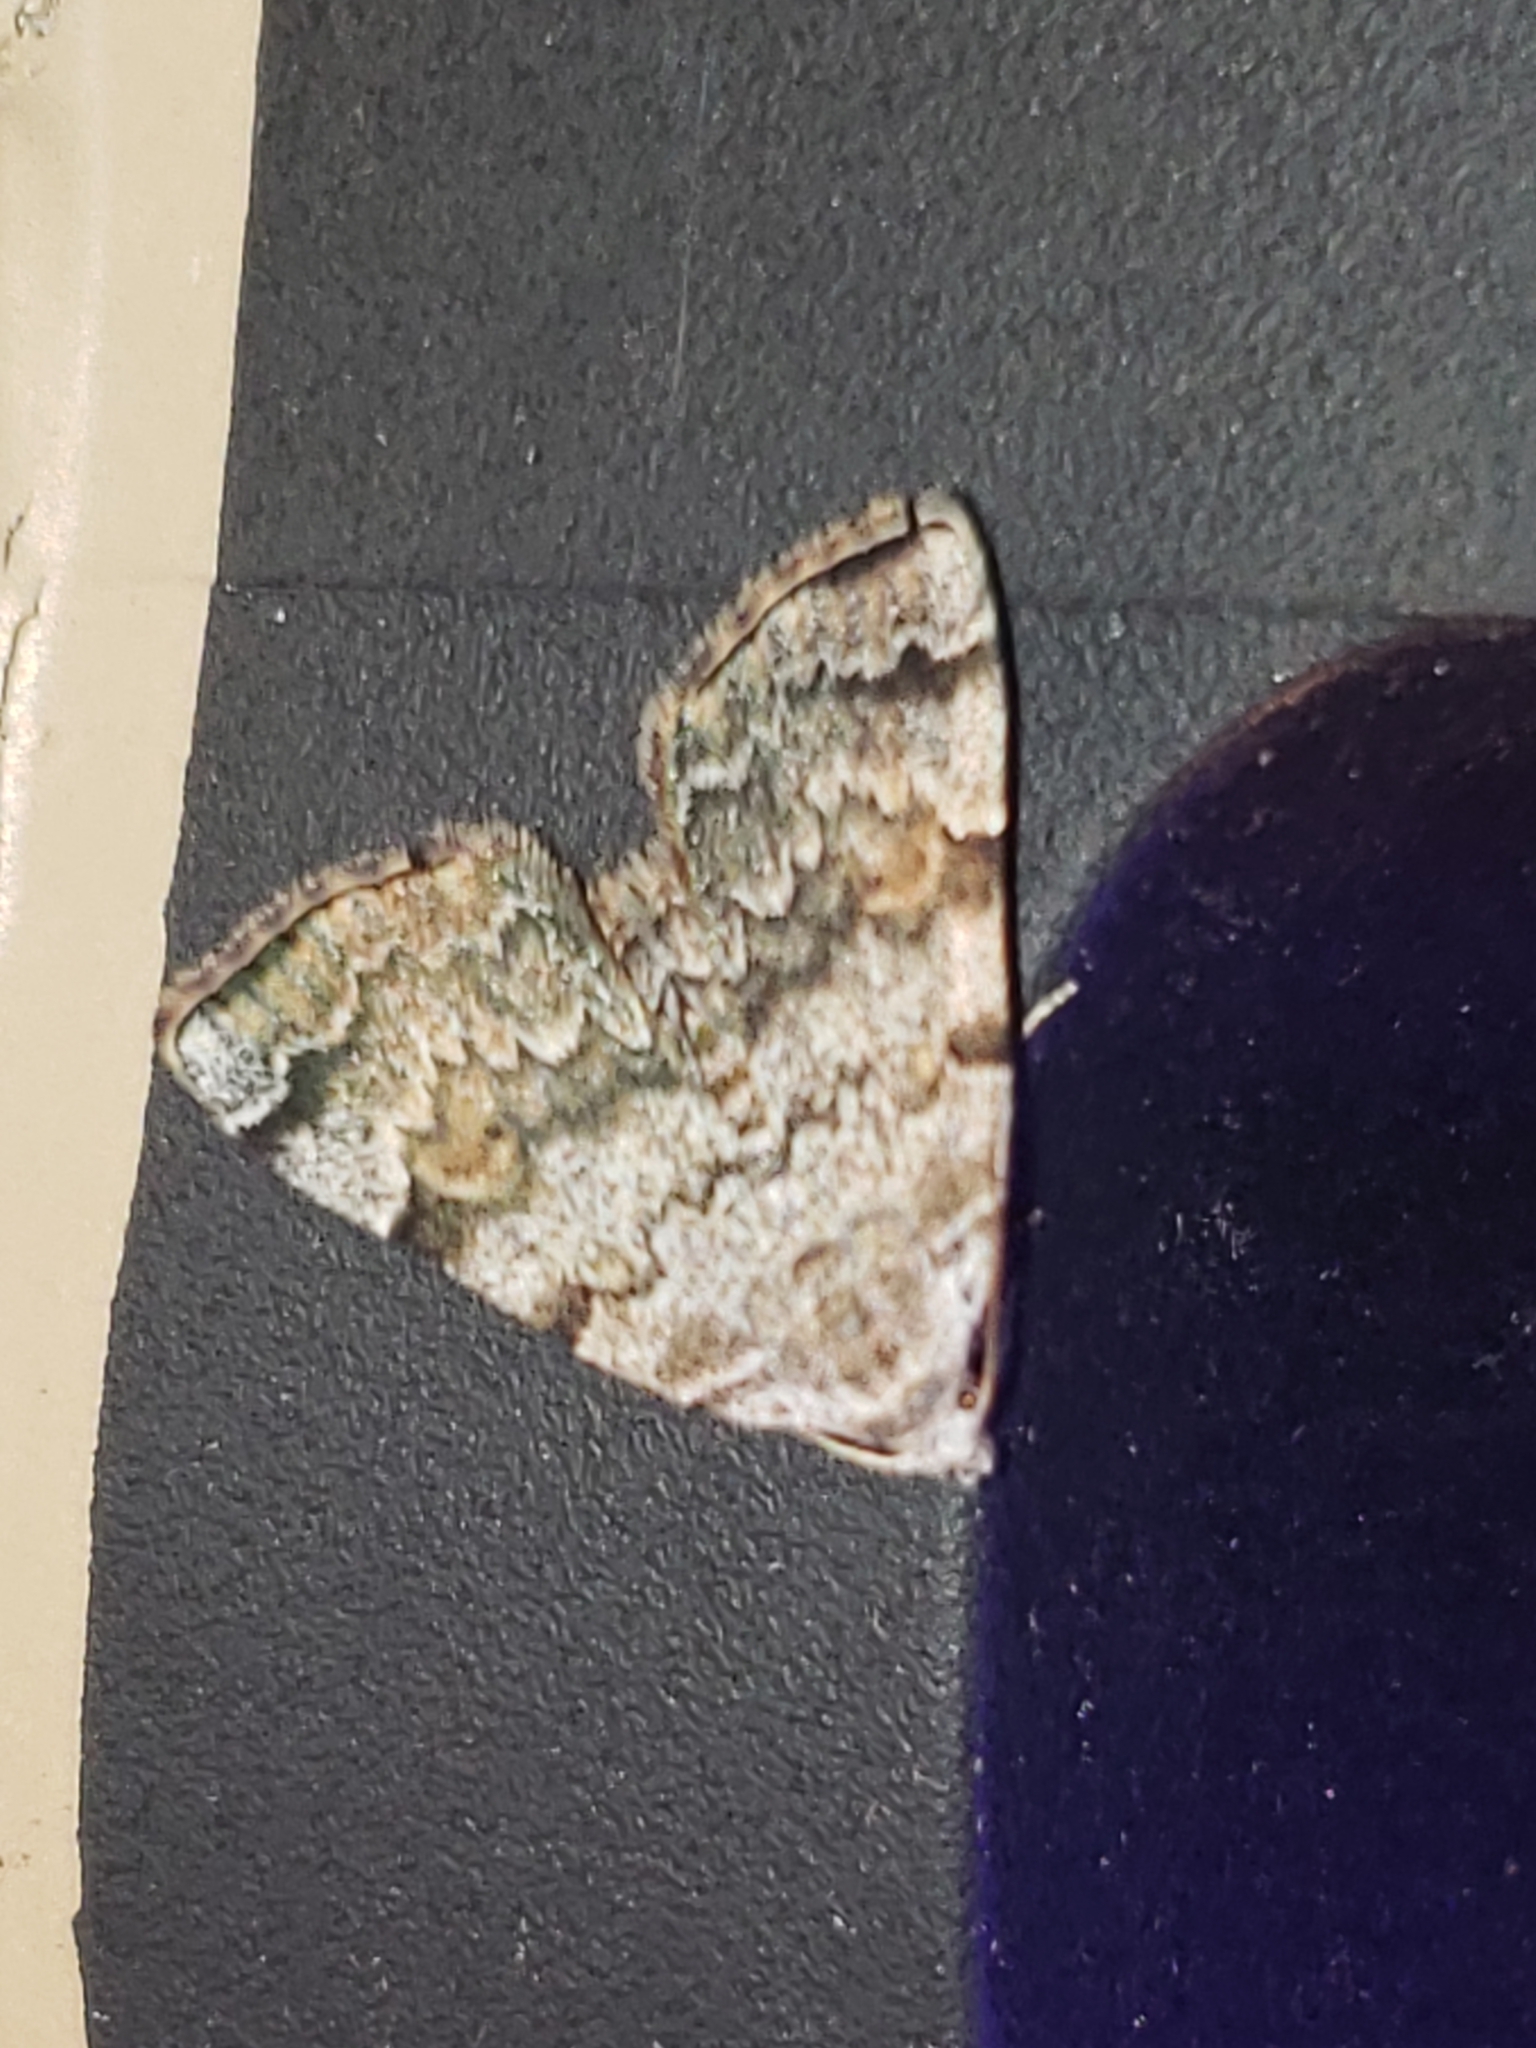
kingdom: Animalia
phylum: Arthropoda
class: Insecta
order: Lepidoptera
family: Erebidae
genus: Idia
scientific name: Idia americalis
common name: American idia moth
